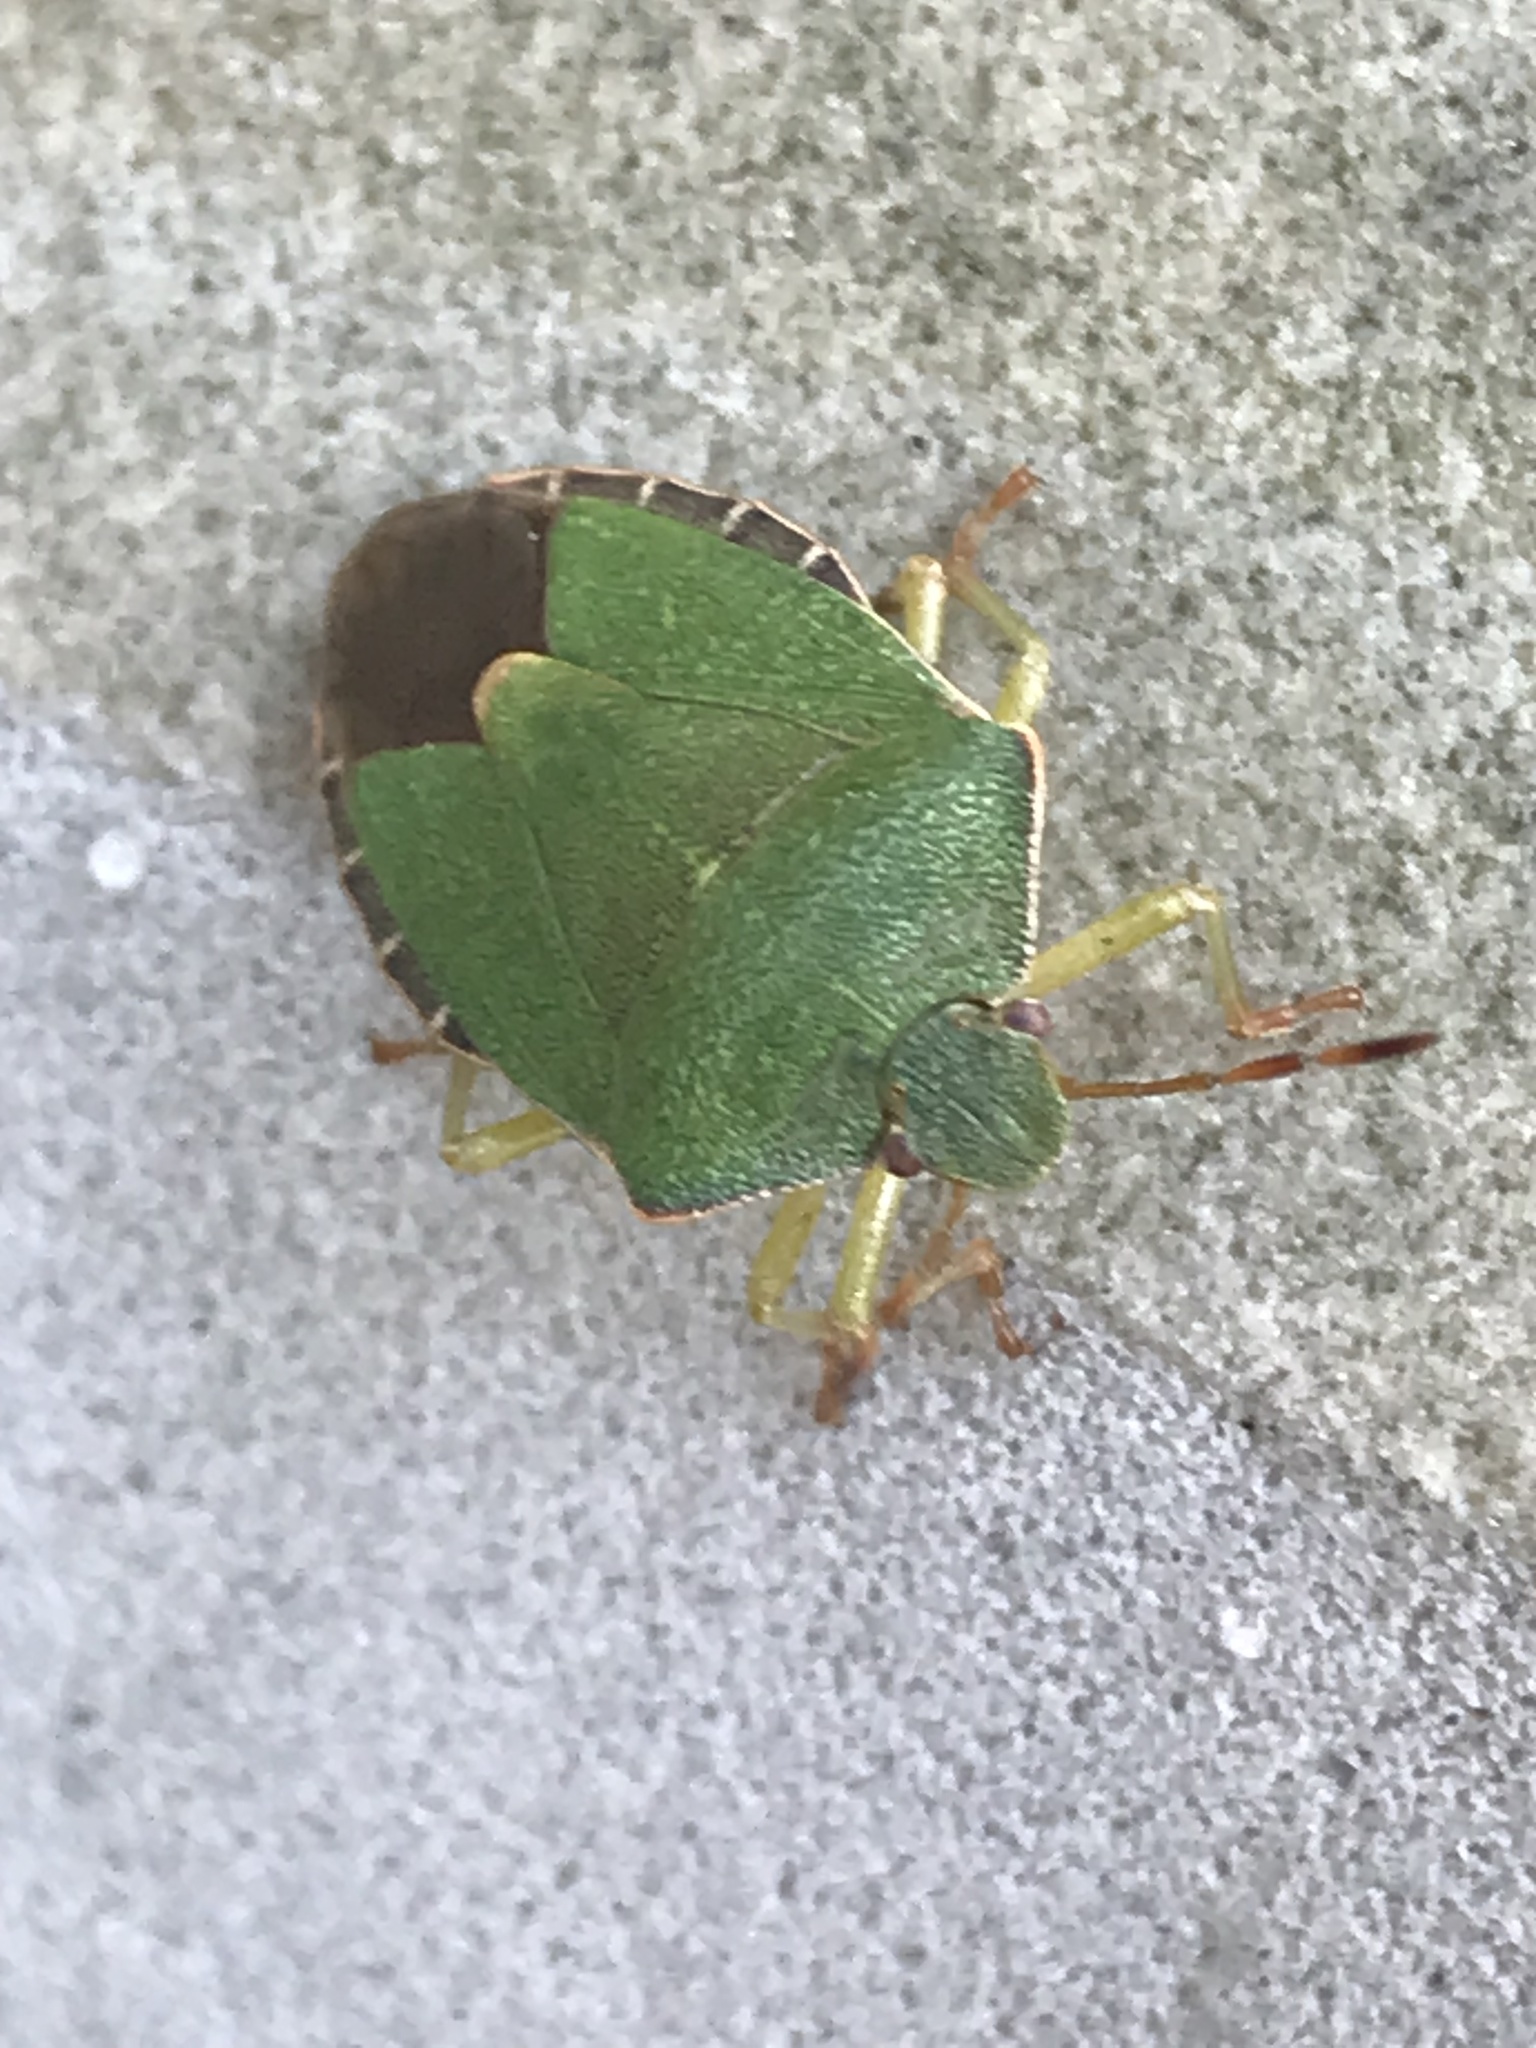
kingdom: Animalia
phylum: Arthropoda
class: Insecta
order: Hemiptera
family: Pentatomidae
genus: Palomena
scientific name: Palomena prasina
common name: Green shieldbug
